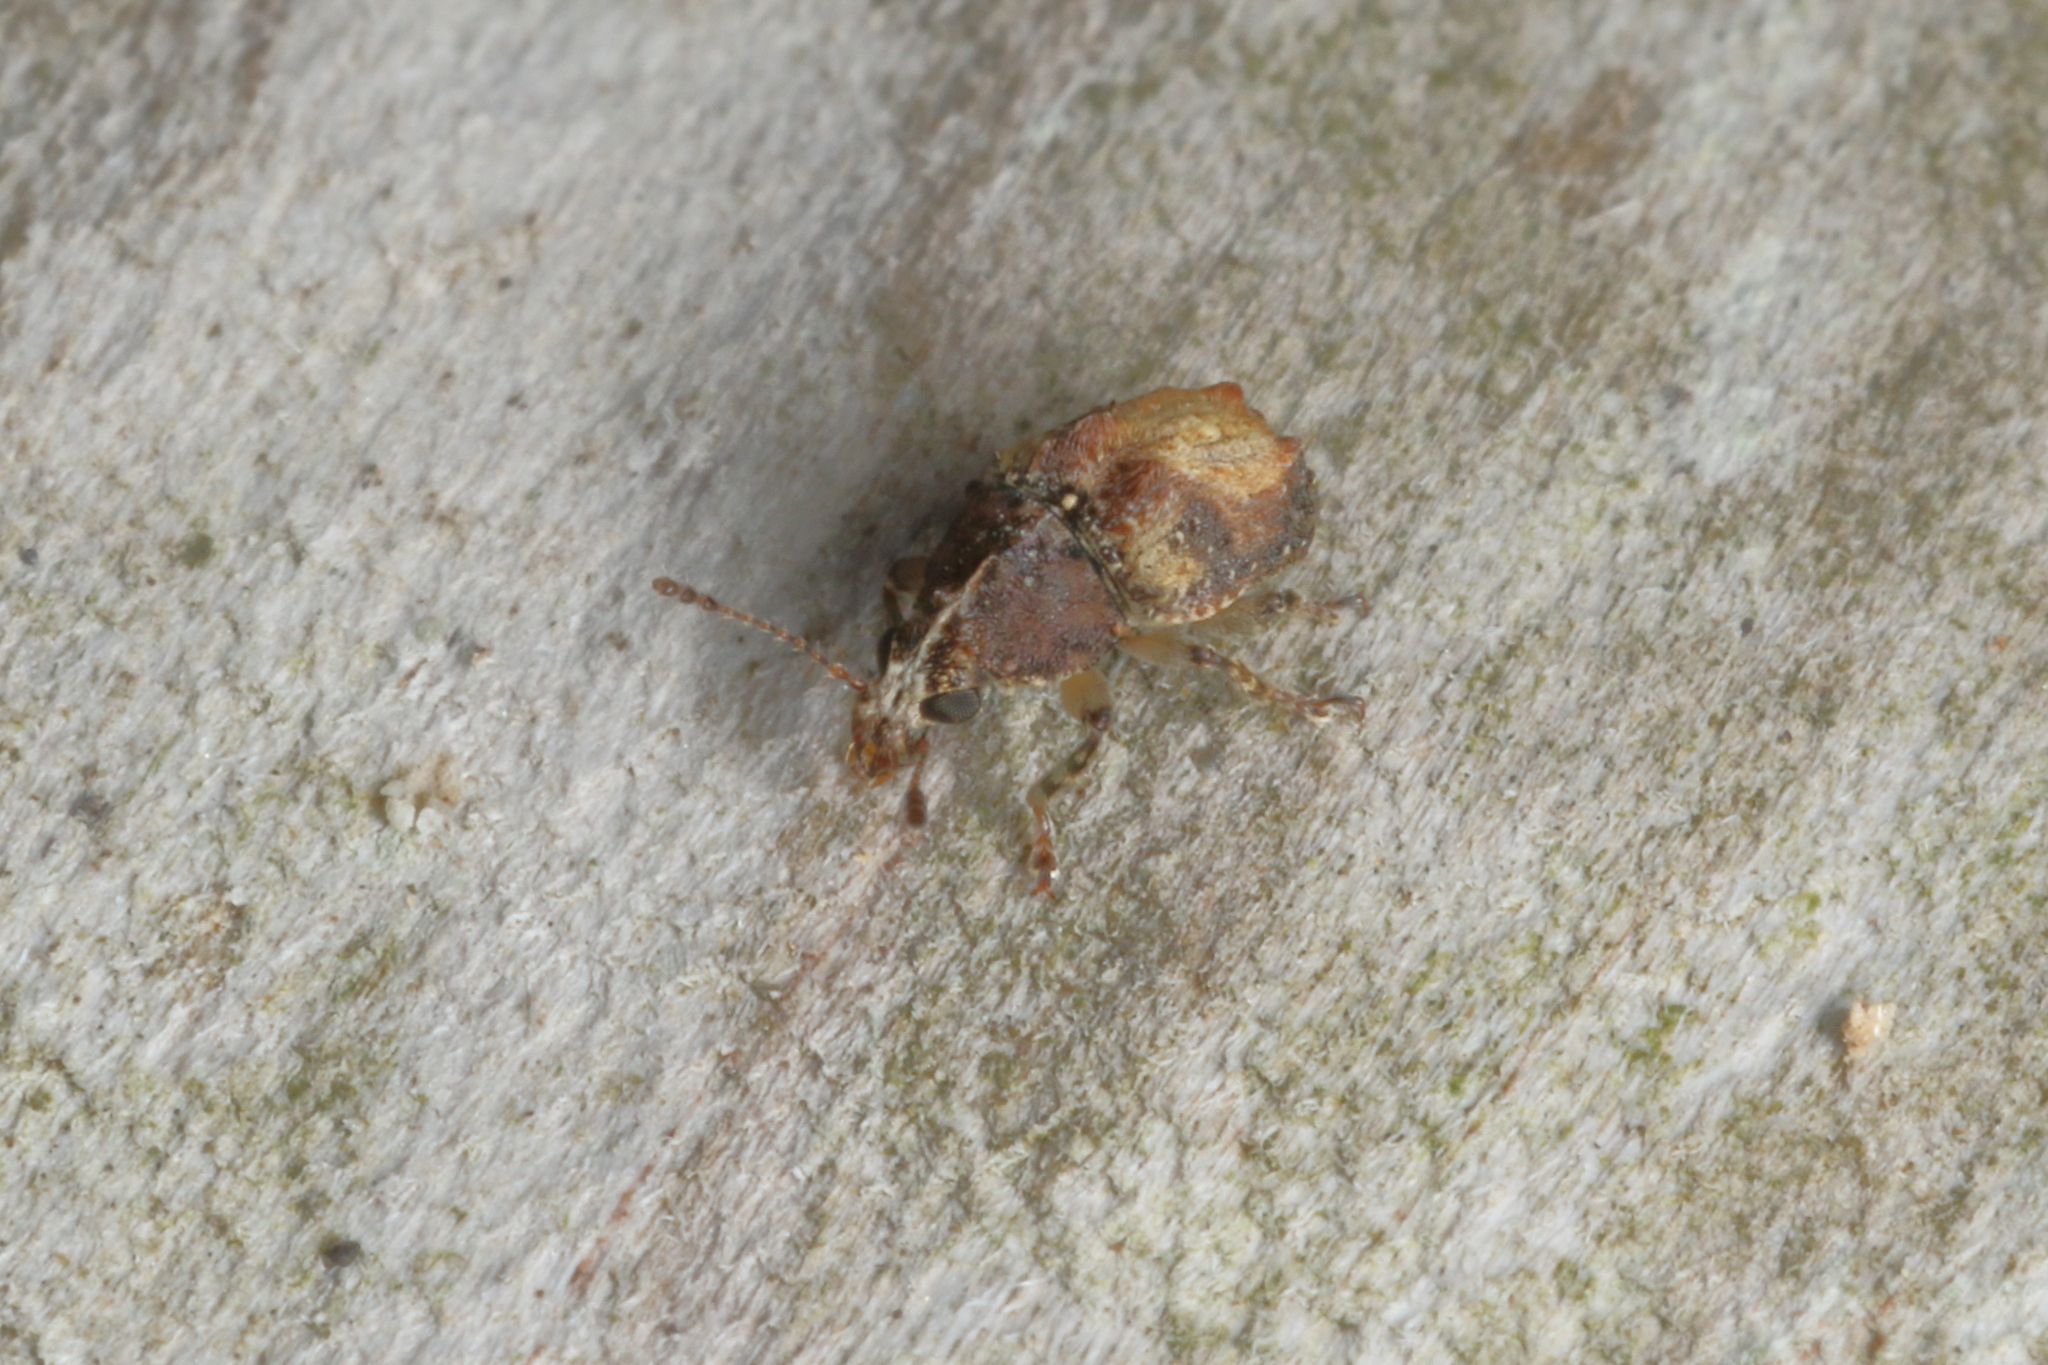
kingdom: Animalia
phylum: Arthropoda
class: Insecta
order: Coleoptera
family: Anthribidae
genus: Garyus
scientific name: Garyus altus
